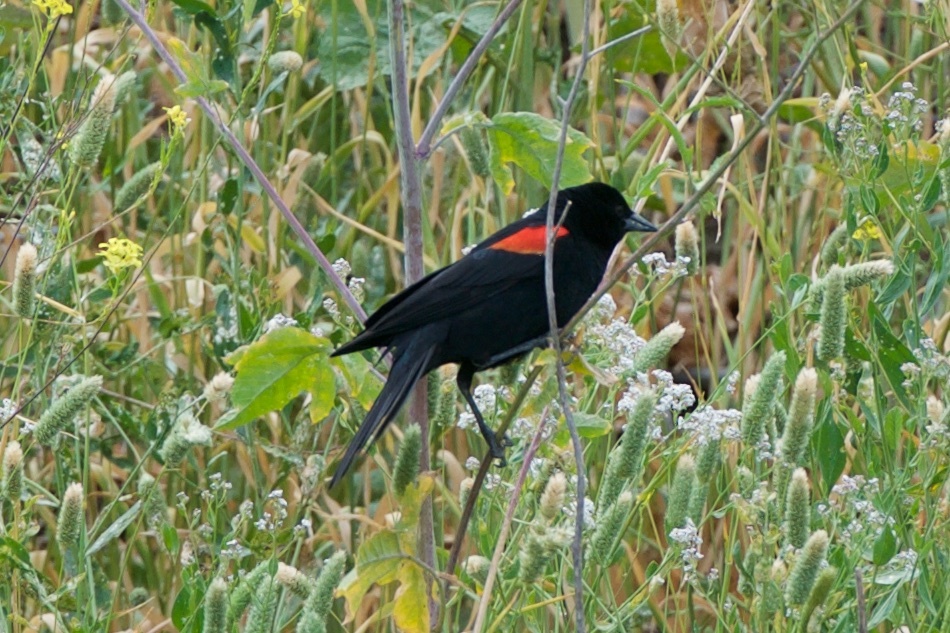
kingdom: Animalia
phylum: Chordata
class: Aves
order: Passeriformes
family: Icteridae
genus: Agelaius
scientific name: Agelaius phoeniceus
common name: Red-winged blackbird
